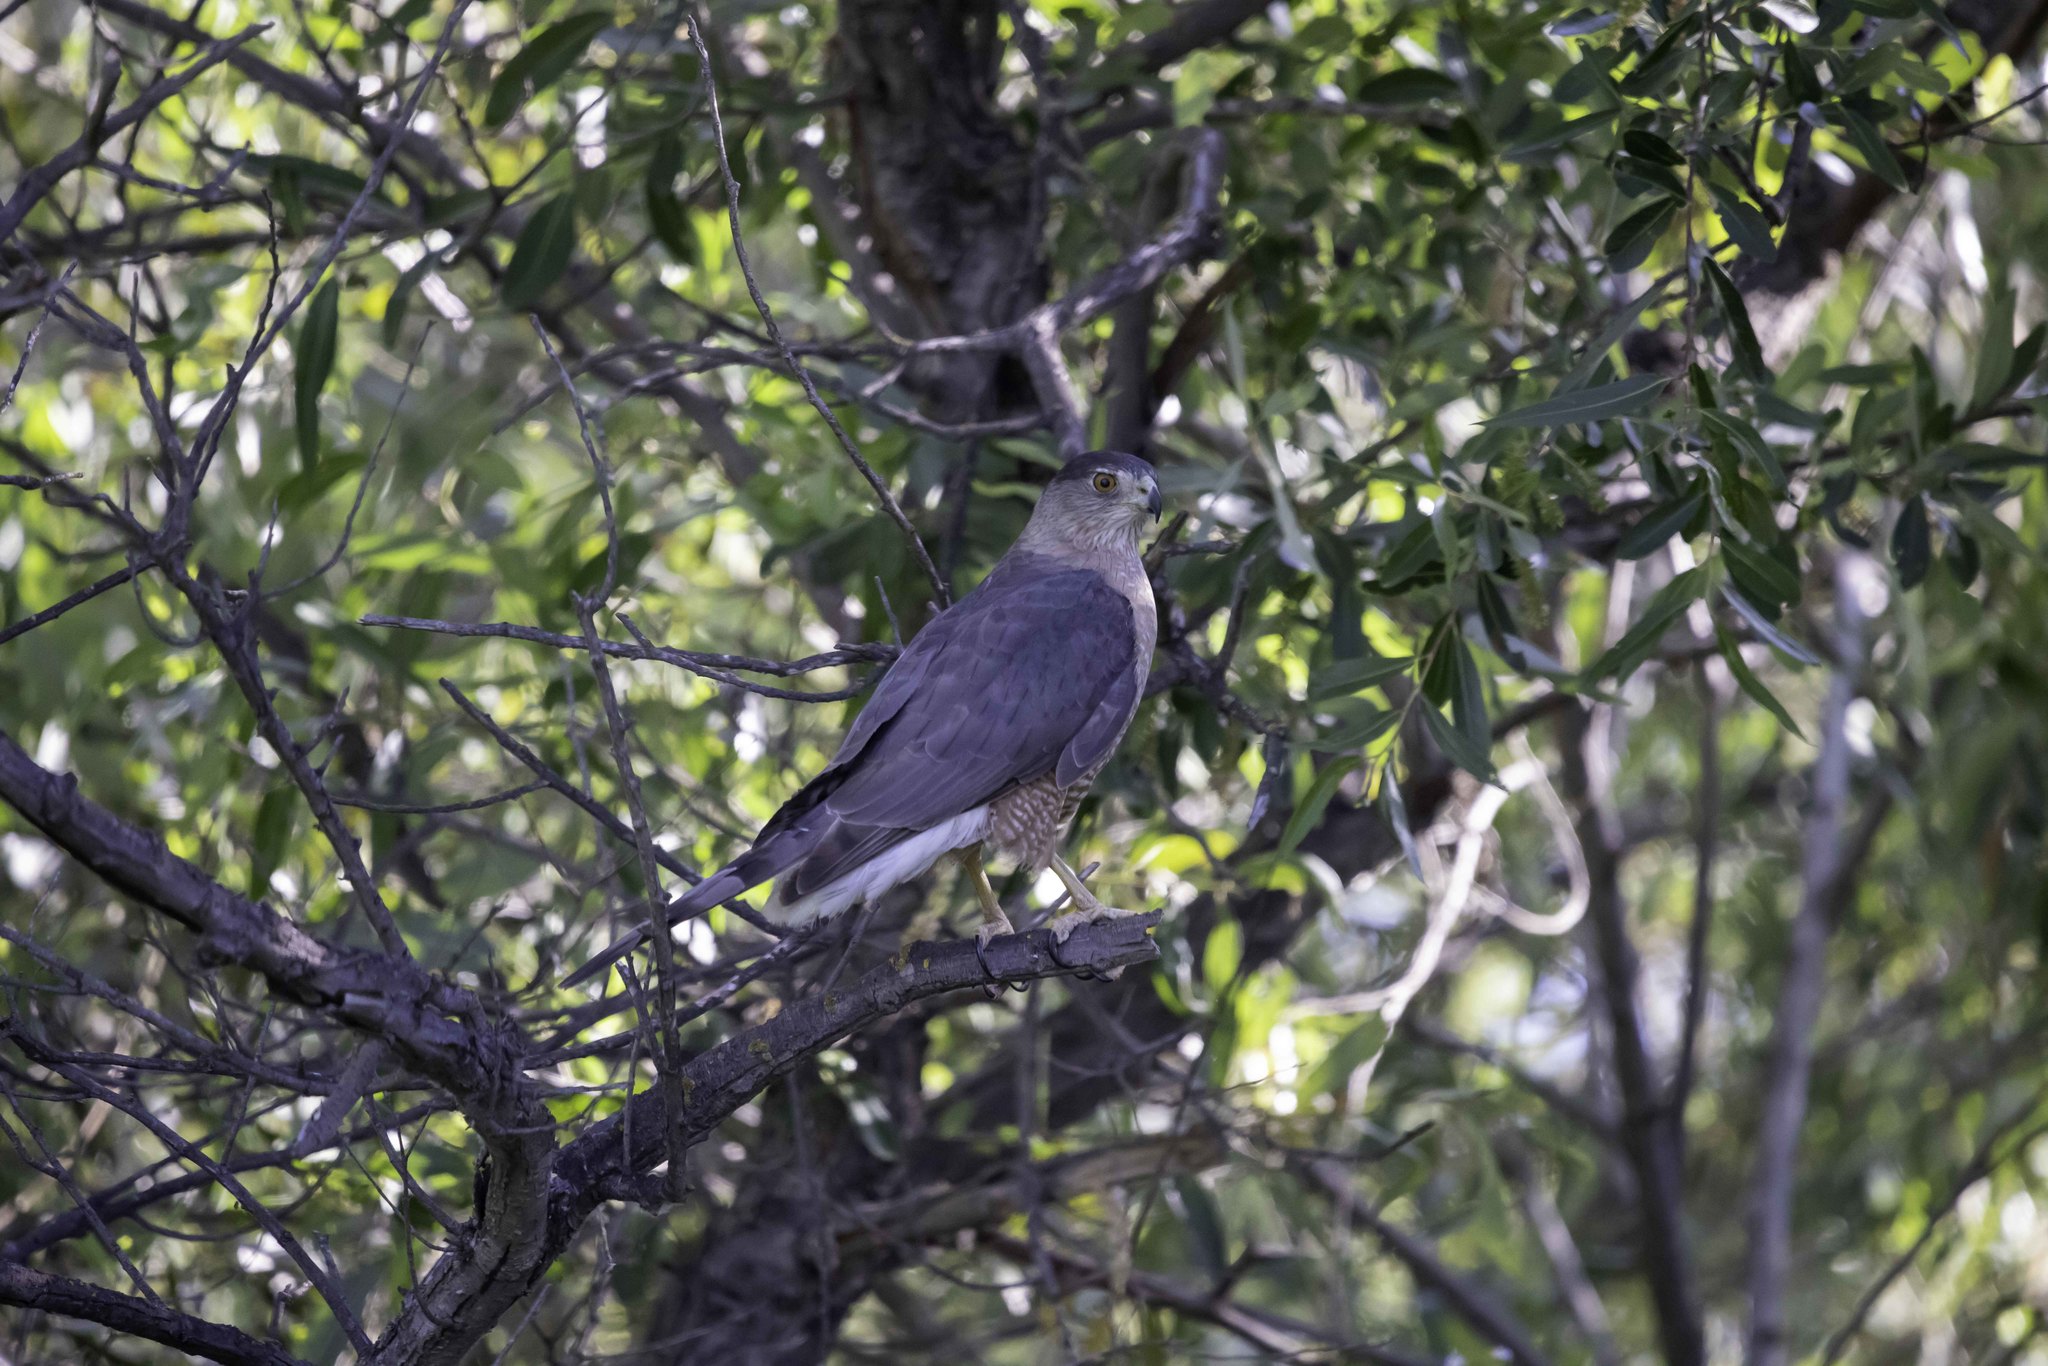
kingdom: Animalia
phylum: Chordata
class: Aves
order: Accipitriformes
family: Accipitridae
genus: Accipiter
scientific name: Accipiter cooperii
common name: Cooper's hawk
